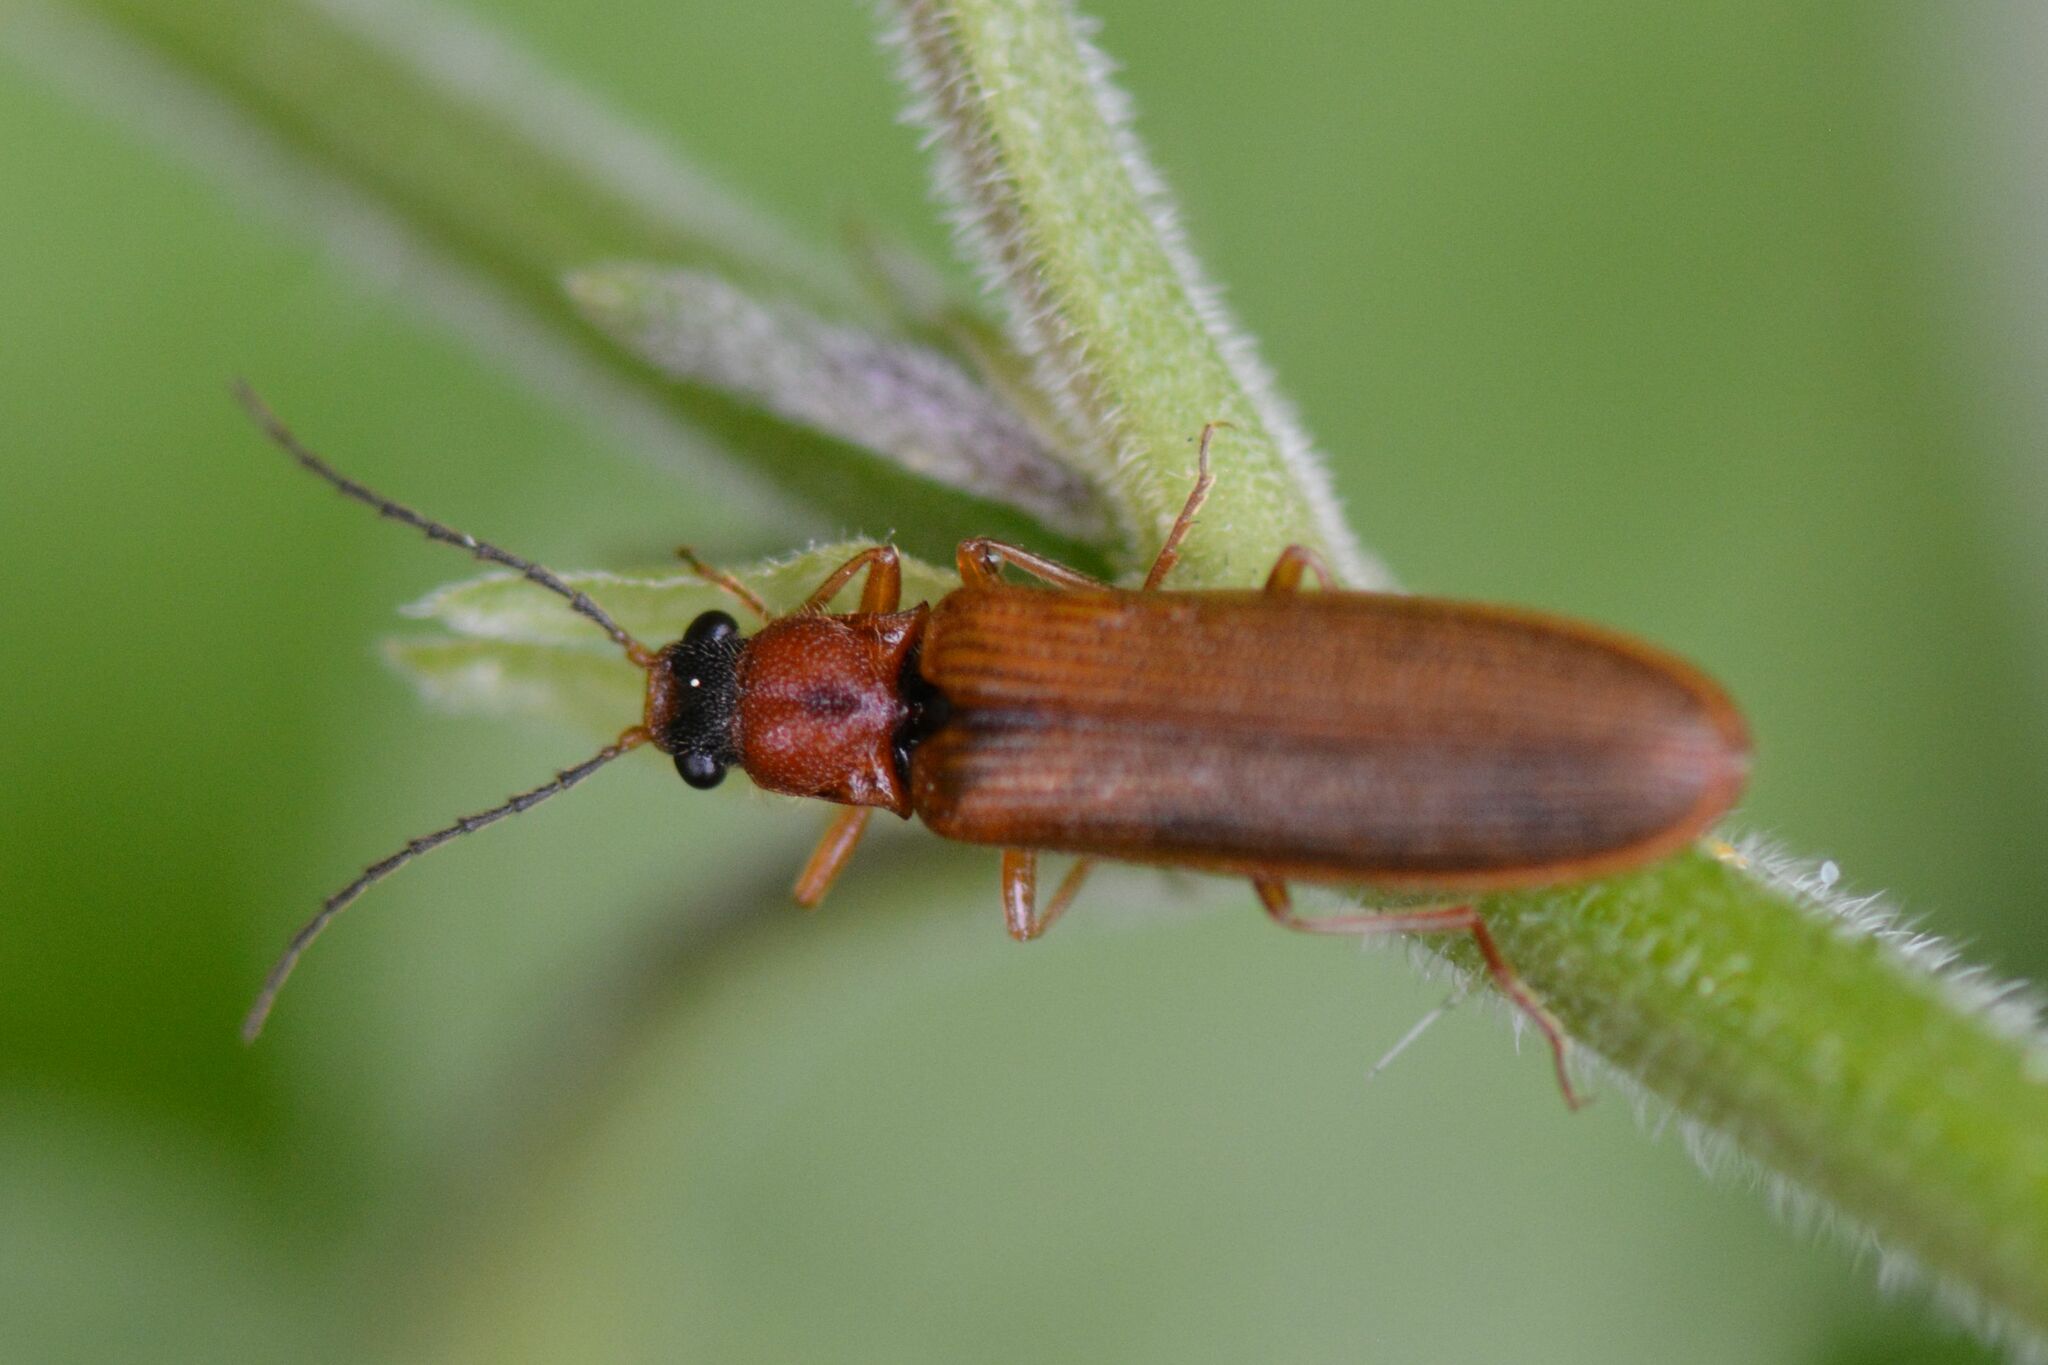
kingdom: Animalia
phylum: Arthropoda
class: Insecta
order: Coleoptera
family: Elateridae
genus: Denticollis
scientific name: Denticollis linearis
